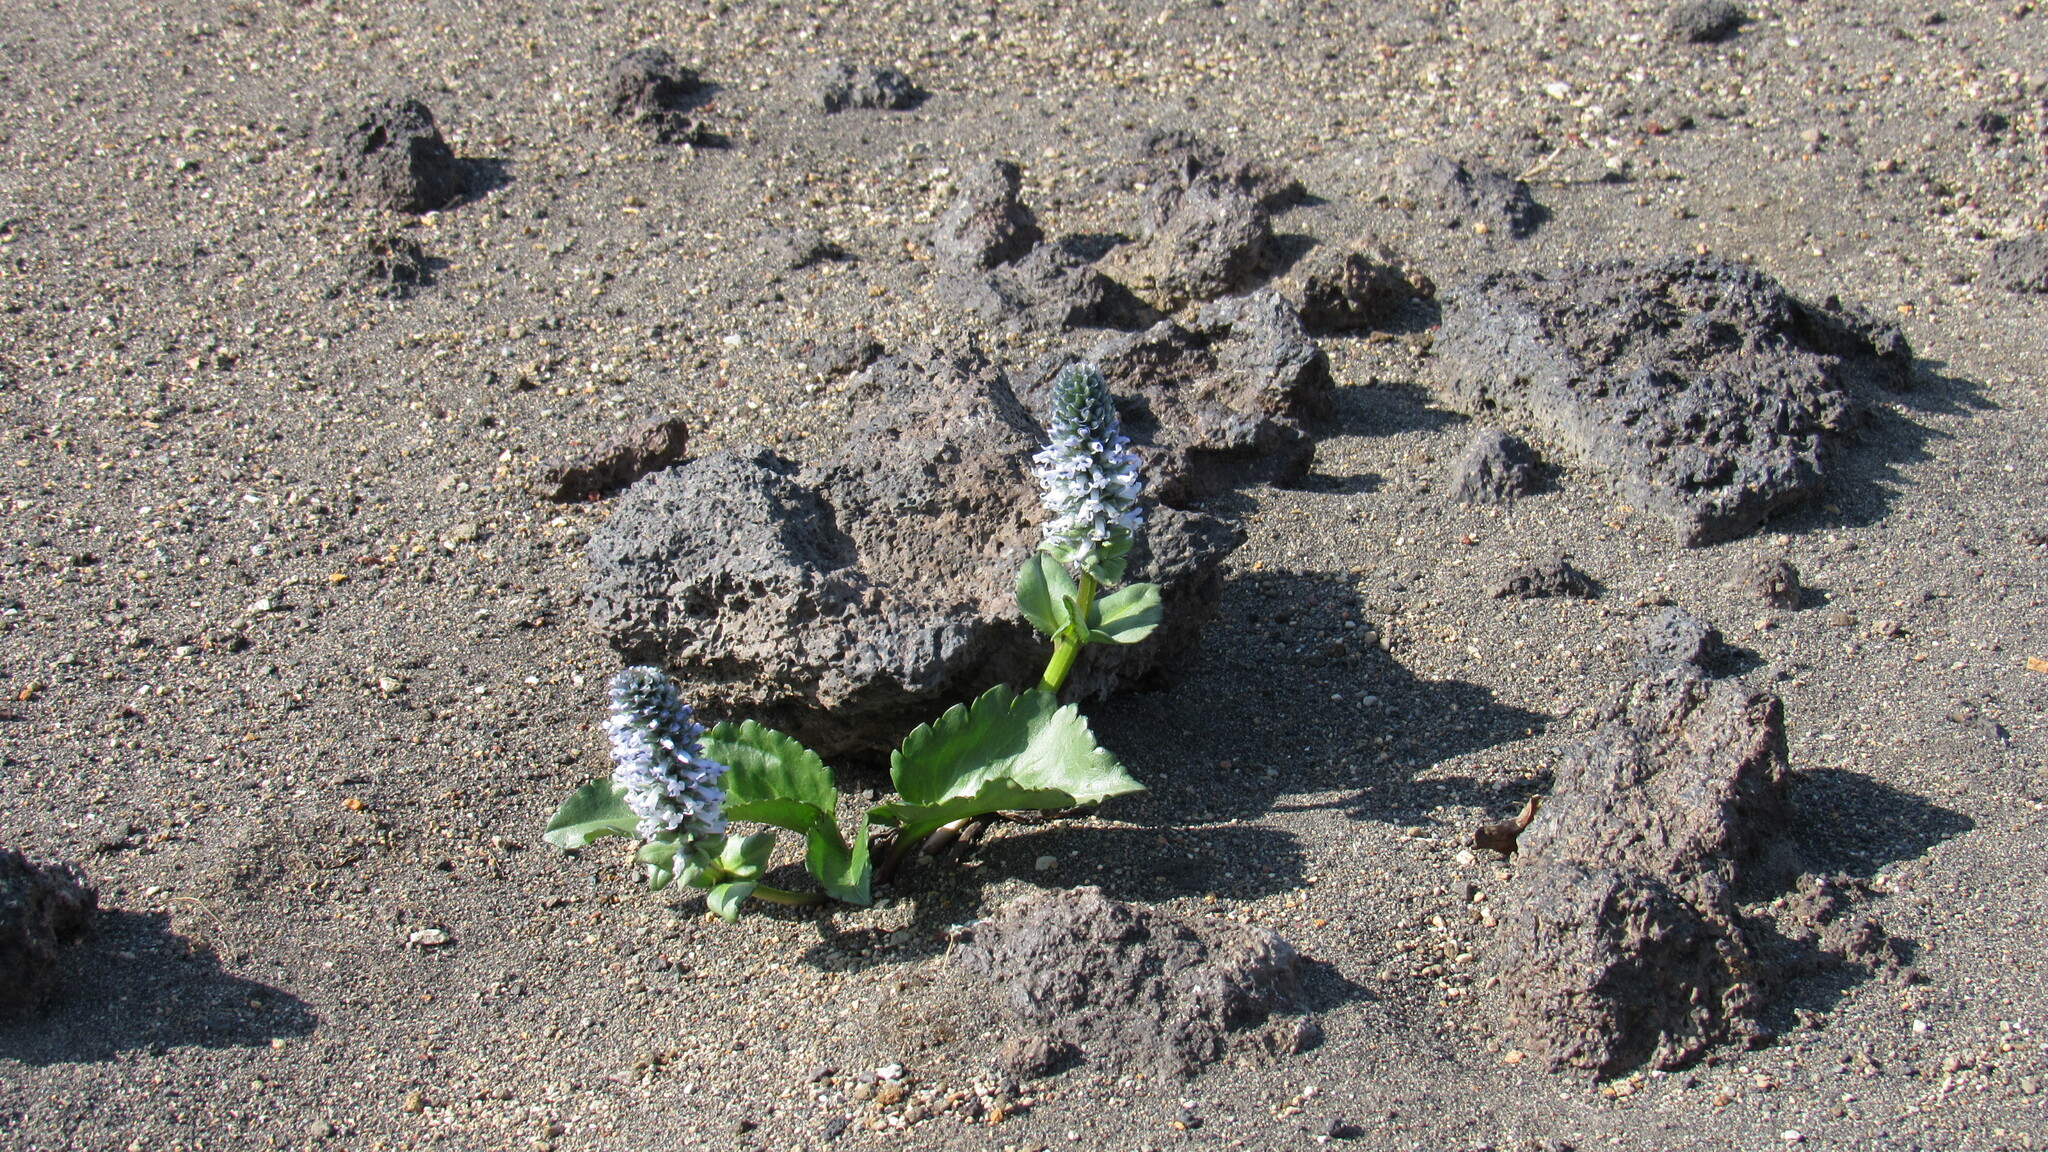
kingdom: Plantae
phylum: Tracheophyta
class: Magnoliopsida
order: Lamiales
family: Plantaginaceae
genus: Lagotis
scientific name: Lagotis glauca
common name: Glaucous weaselsnout
